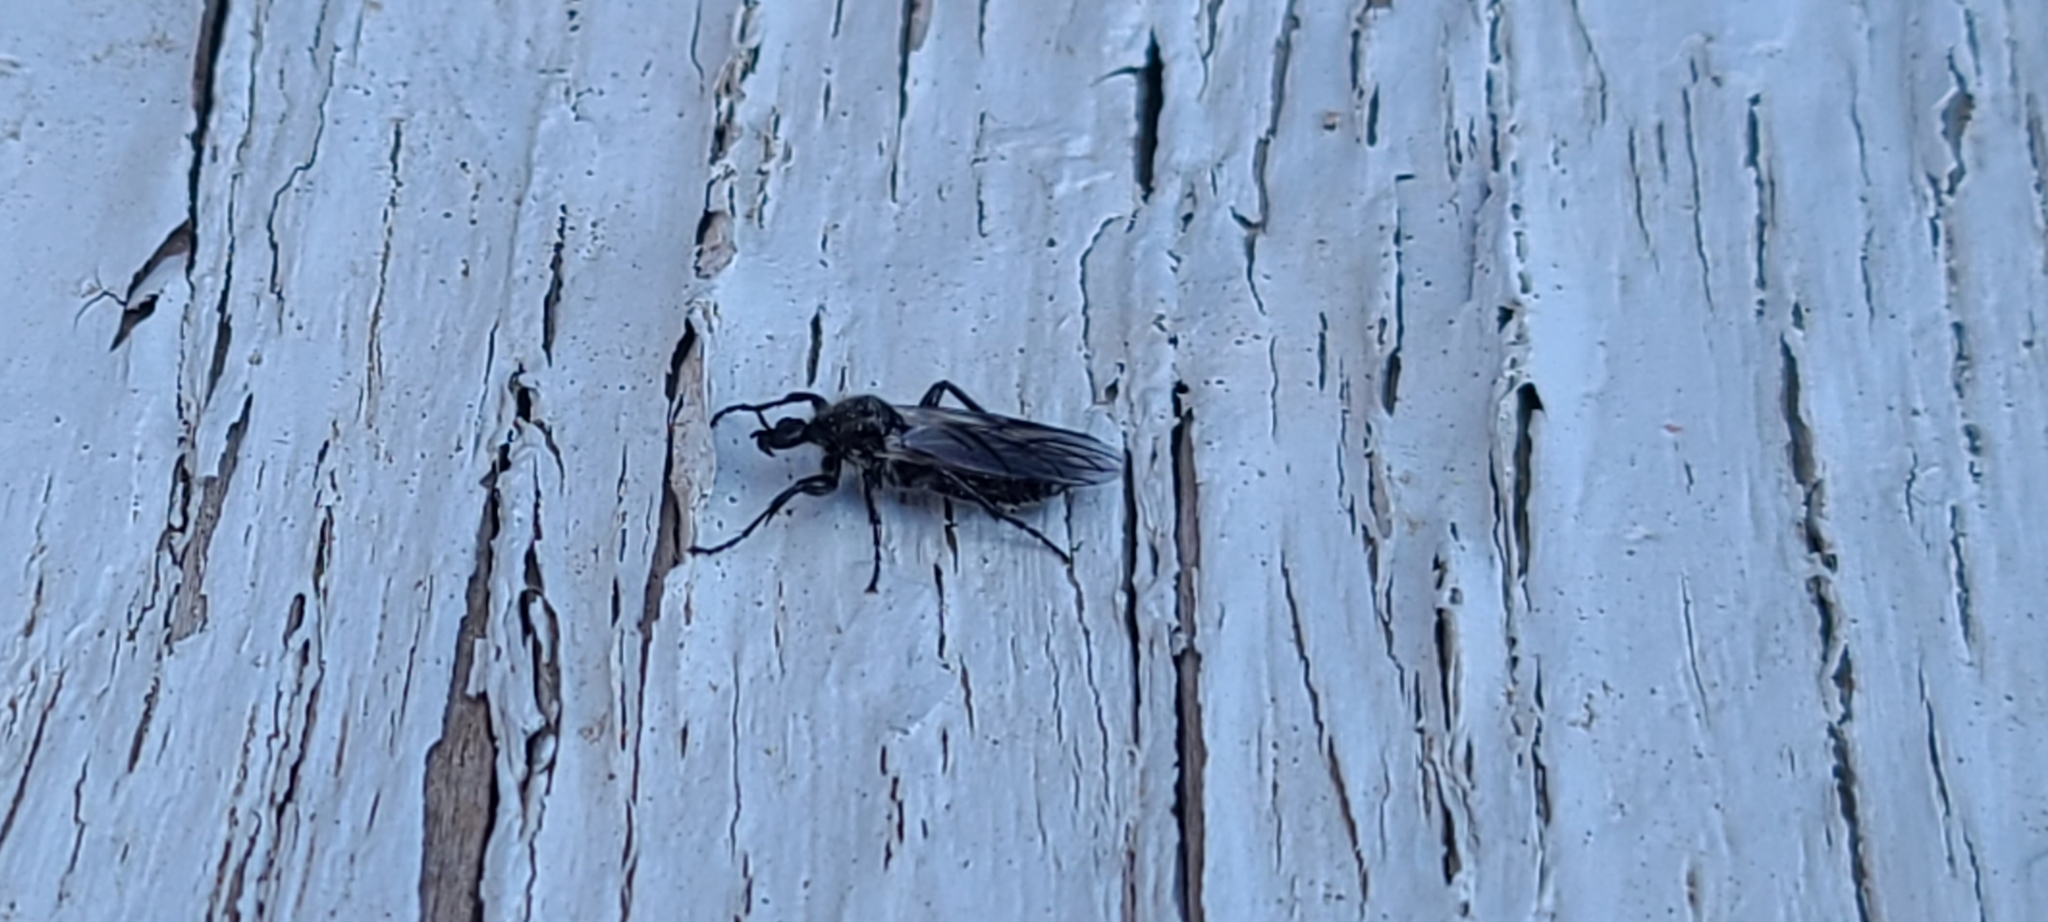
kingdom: Animalia
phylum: Arthropoda
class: Insecta
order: Diptera
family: Bibionidae
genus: Bibio
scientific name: Bibio
